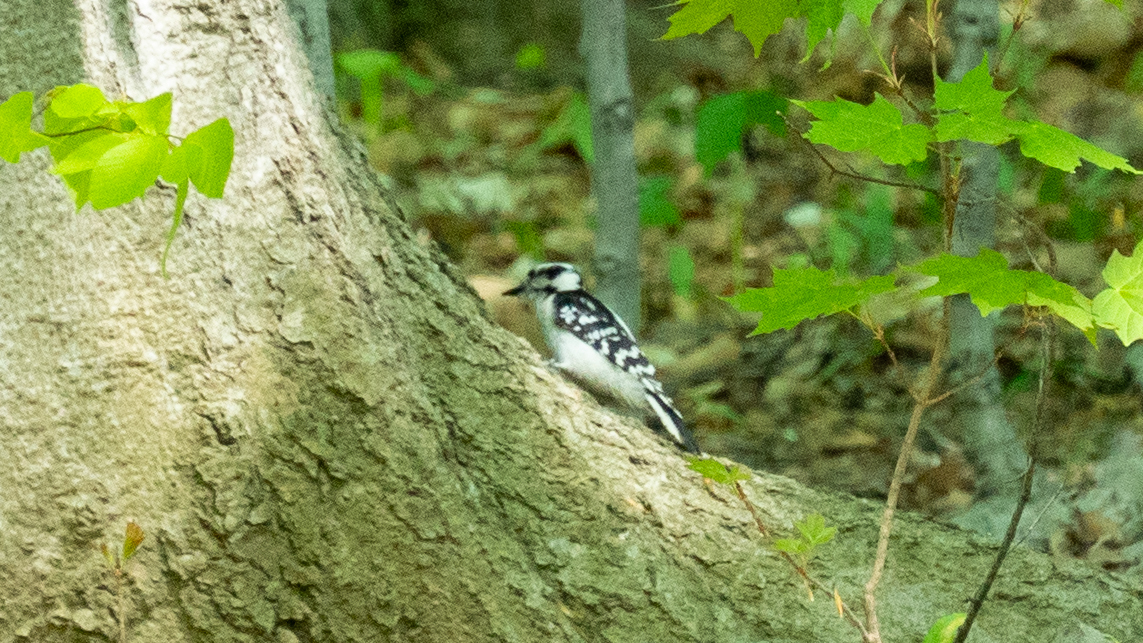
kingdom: Animalia
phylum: Chordata
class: Aves
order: Piciformes
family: Picidae
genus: Dryobates
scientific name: Dryobates pubescens
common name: Downy woodpecker
